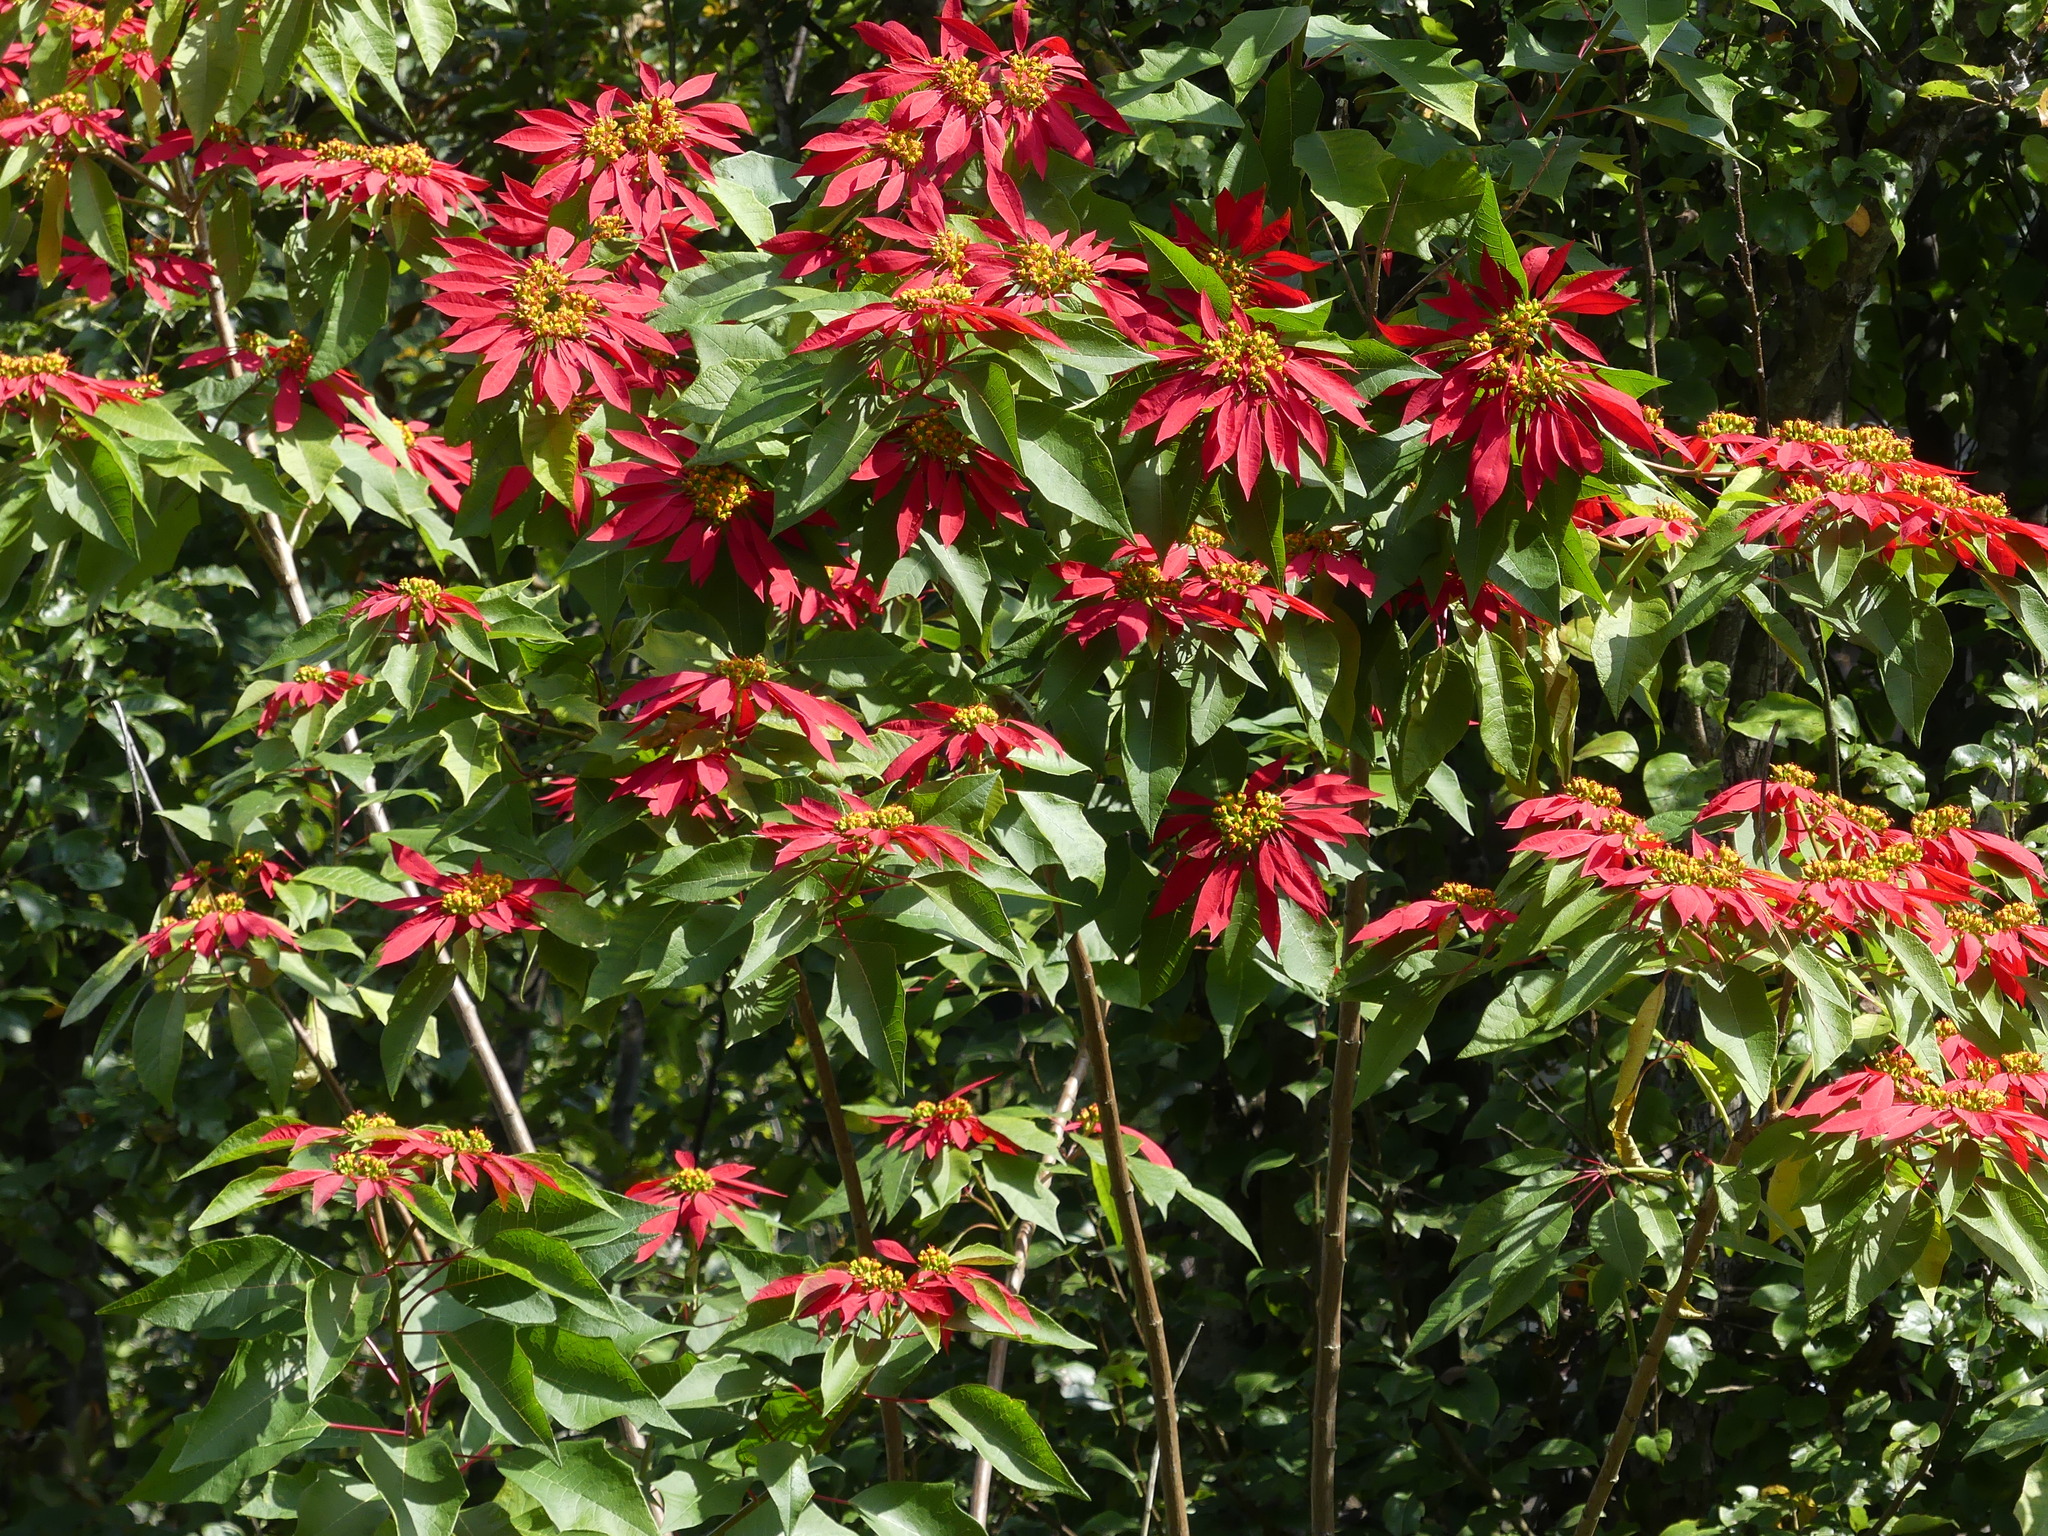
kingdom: Plantae
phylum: Tracheophyta
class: Magnoliopsida
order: Malpighiales
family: Euphorbiaceae
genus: Euphorbia
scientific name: Euphorbia pulcherrima
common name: Christmas-flower
